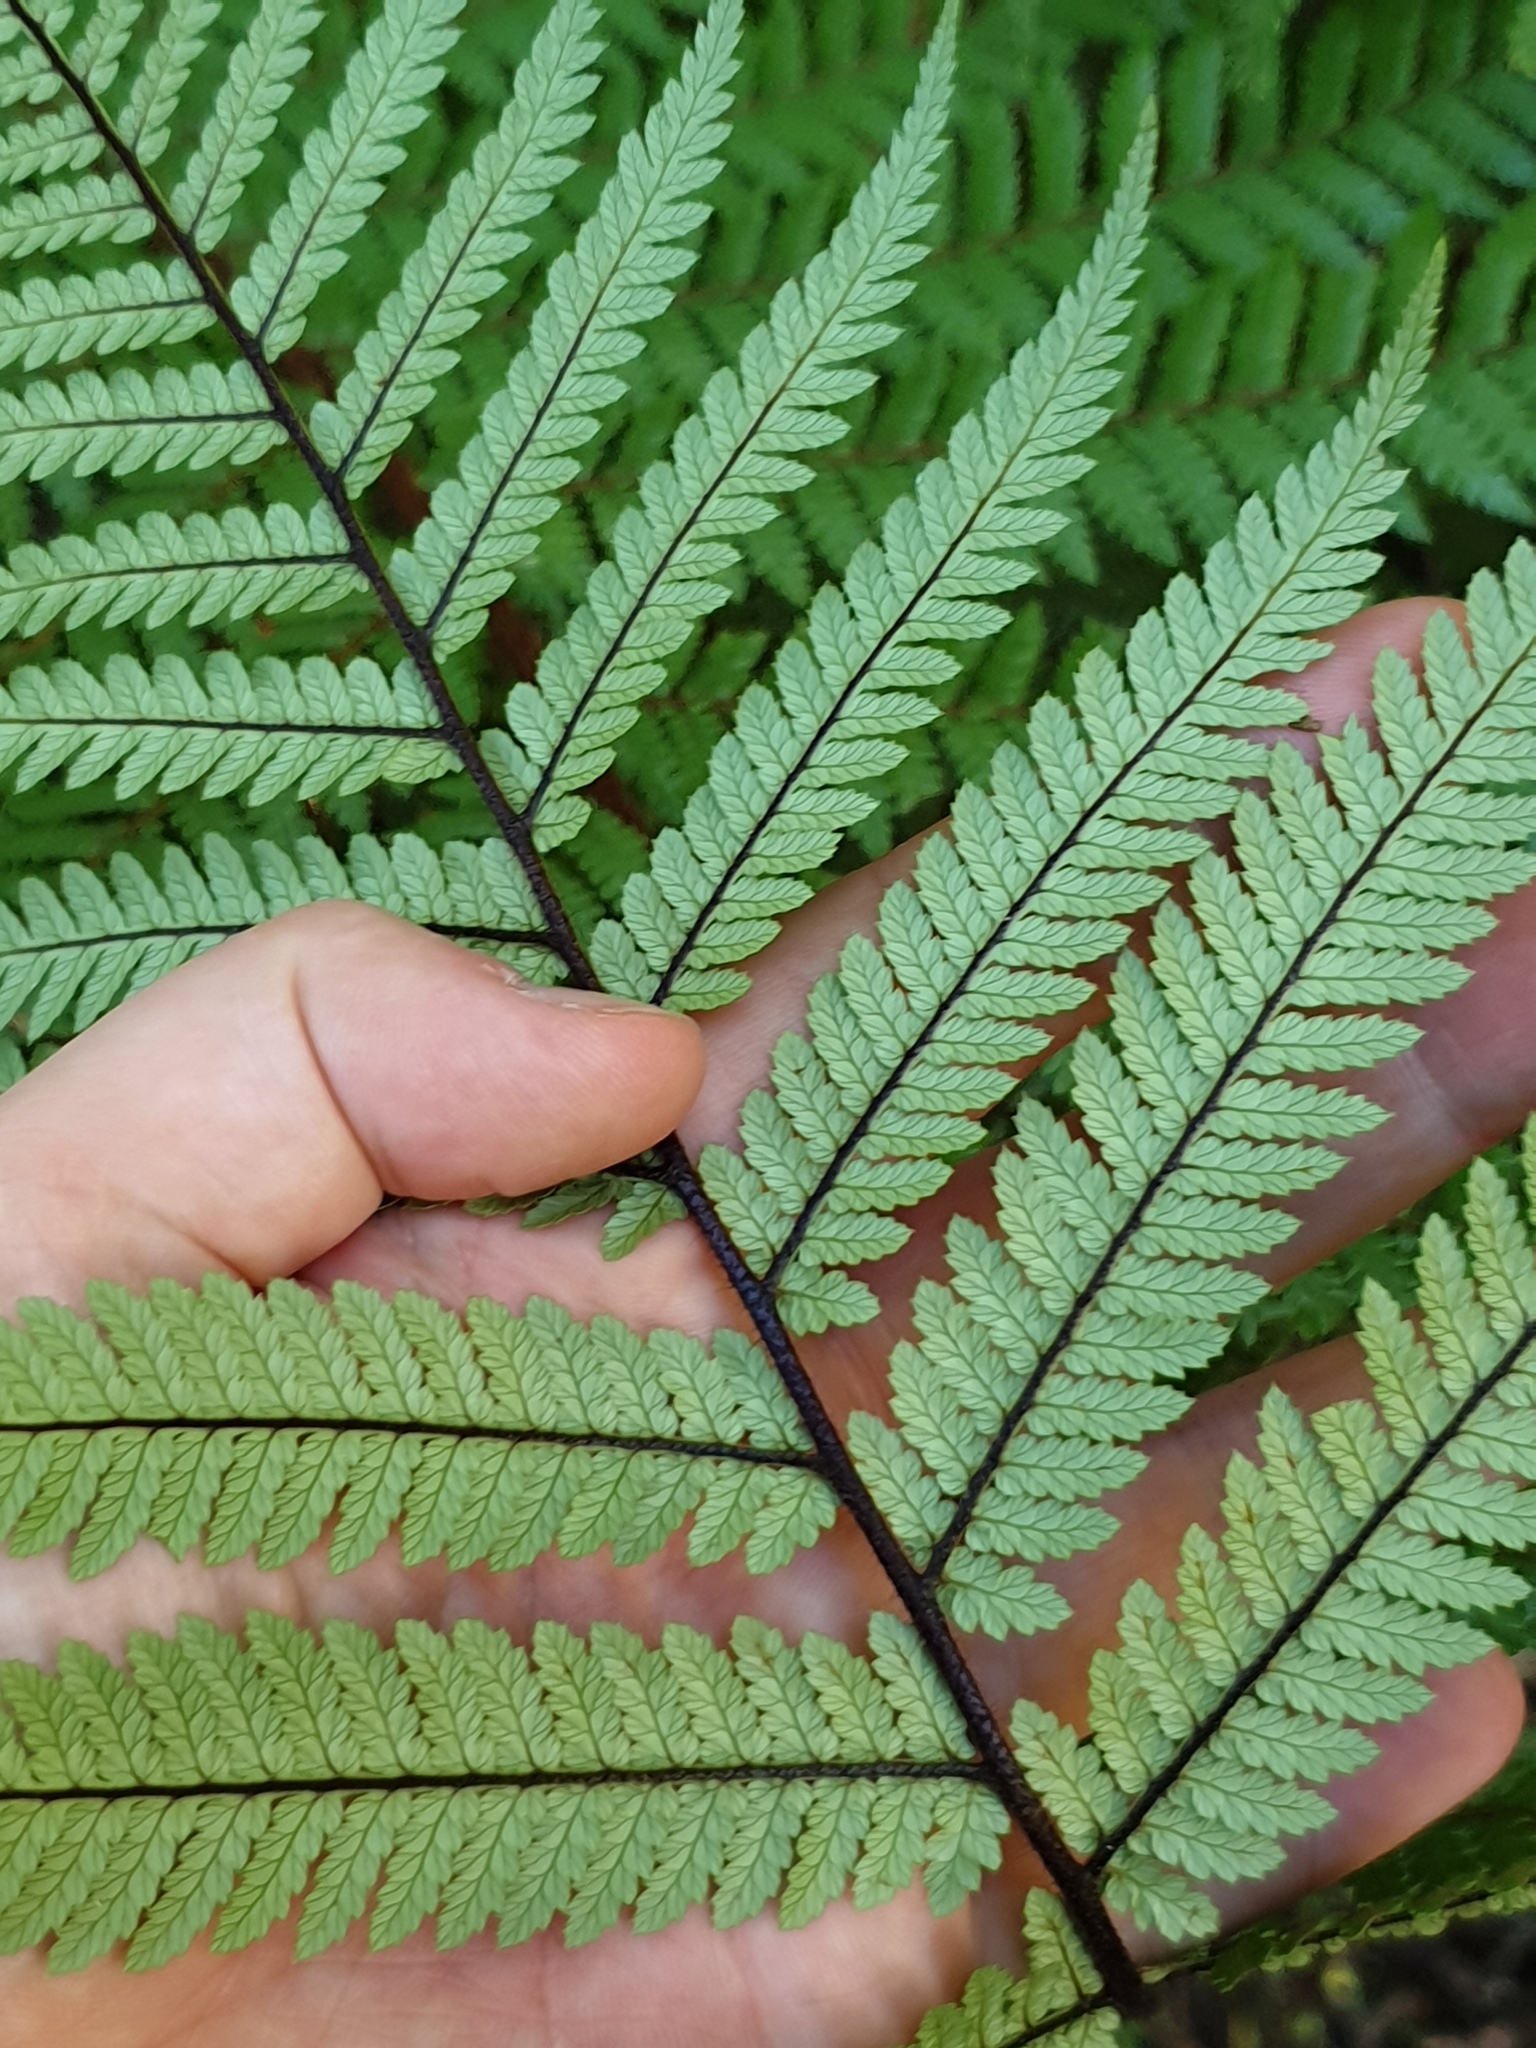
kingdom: Plantae
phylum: Tracheophyta
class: Polypodiopsida
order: Cyatheales
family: Dicksoniaceae
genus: Dicksonia
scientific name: Dicksonia squarrosa
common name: Hard treefern
